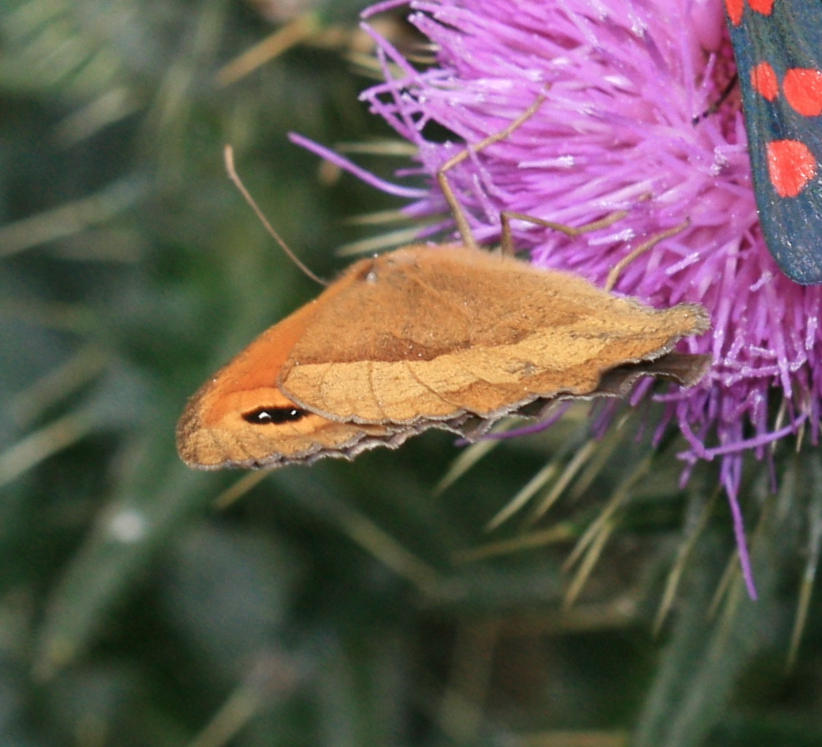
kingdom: Animalia
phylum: Arthropoda
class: Insecta
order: Lepidoptera
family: Nymphalidae
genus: Maniola
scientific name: Maniola jurtina
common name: Meadow brown
